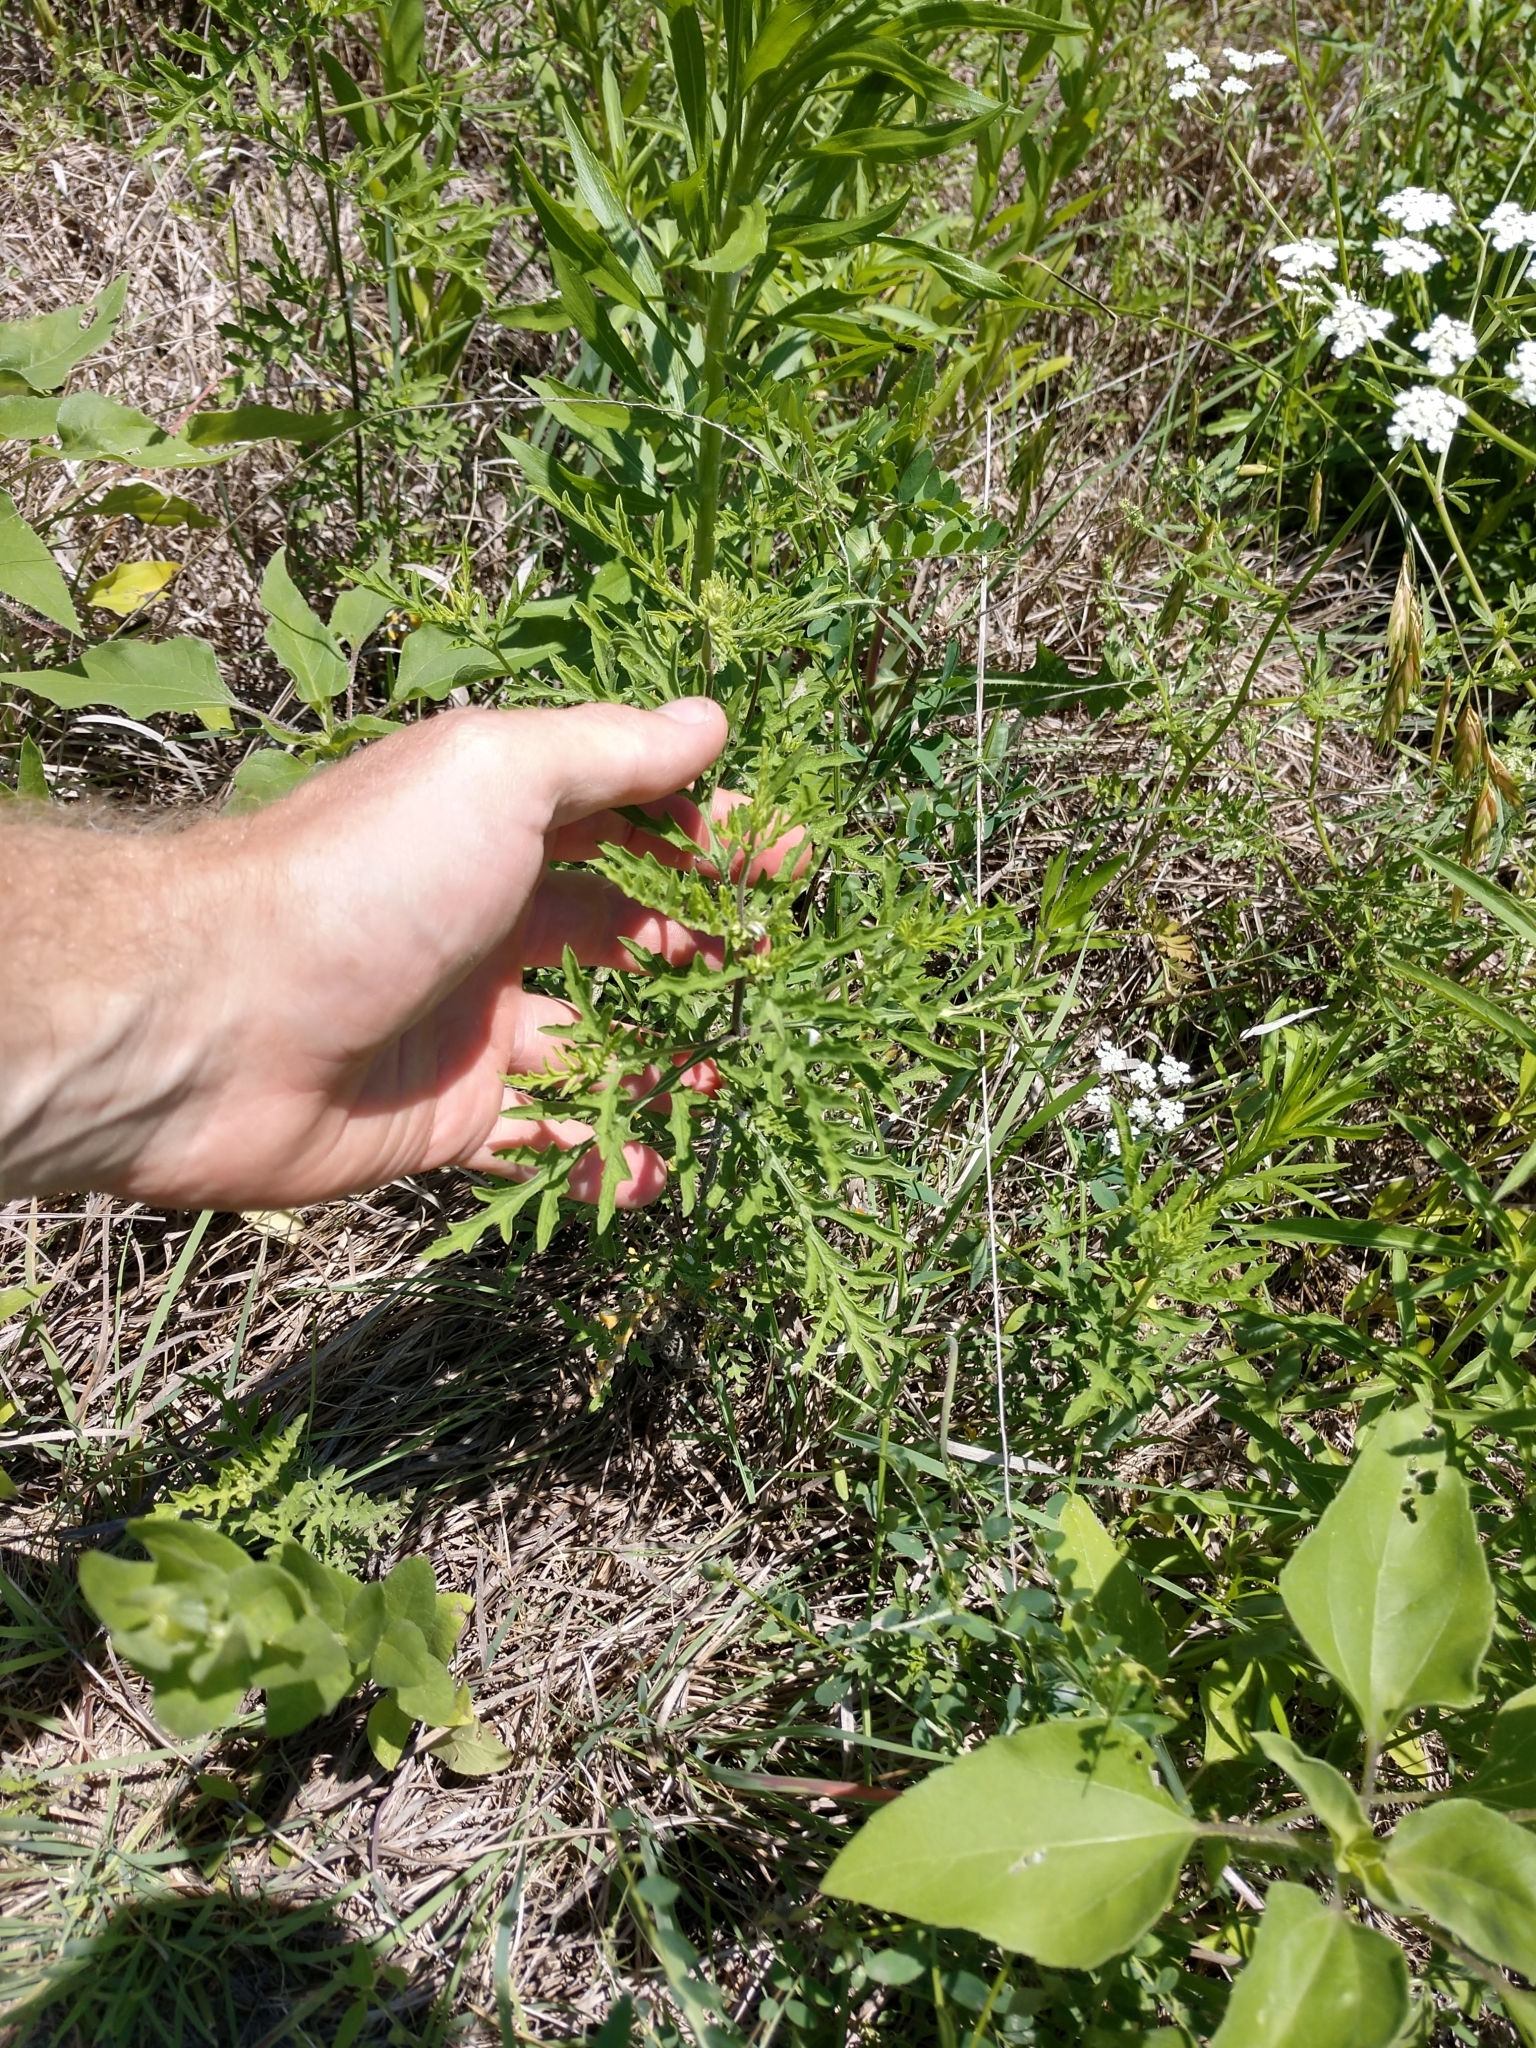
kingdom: Plantae
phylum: Tracheophyta
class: Magnoliopsida
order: Asterales
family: Asteraceae
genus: Ambrosia
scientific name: Ambrosia psilostachya
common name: Perennial ragweed
